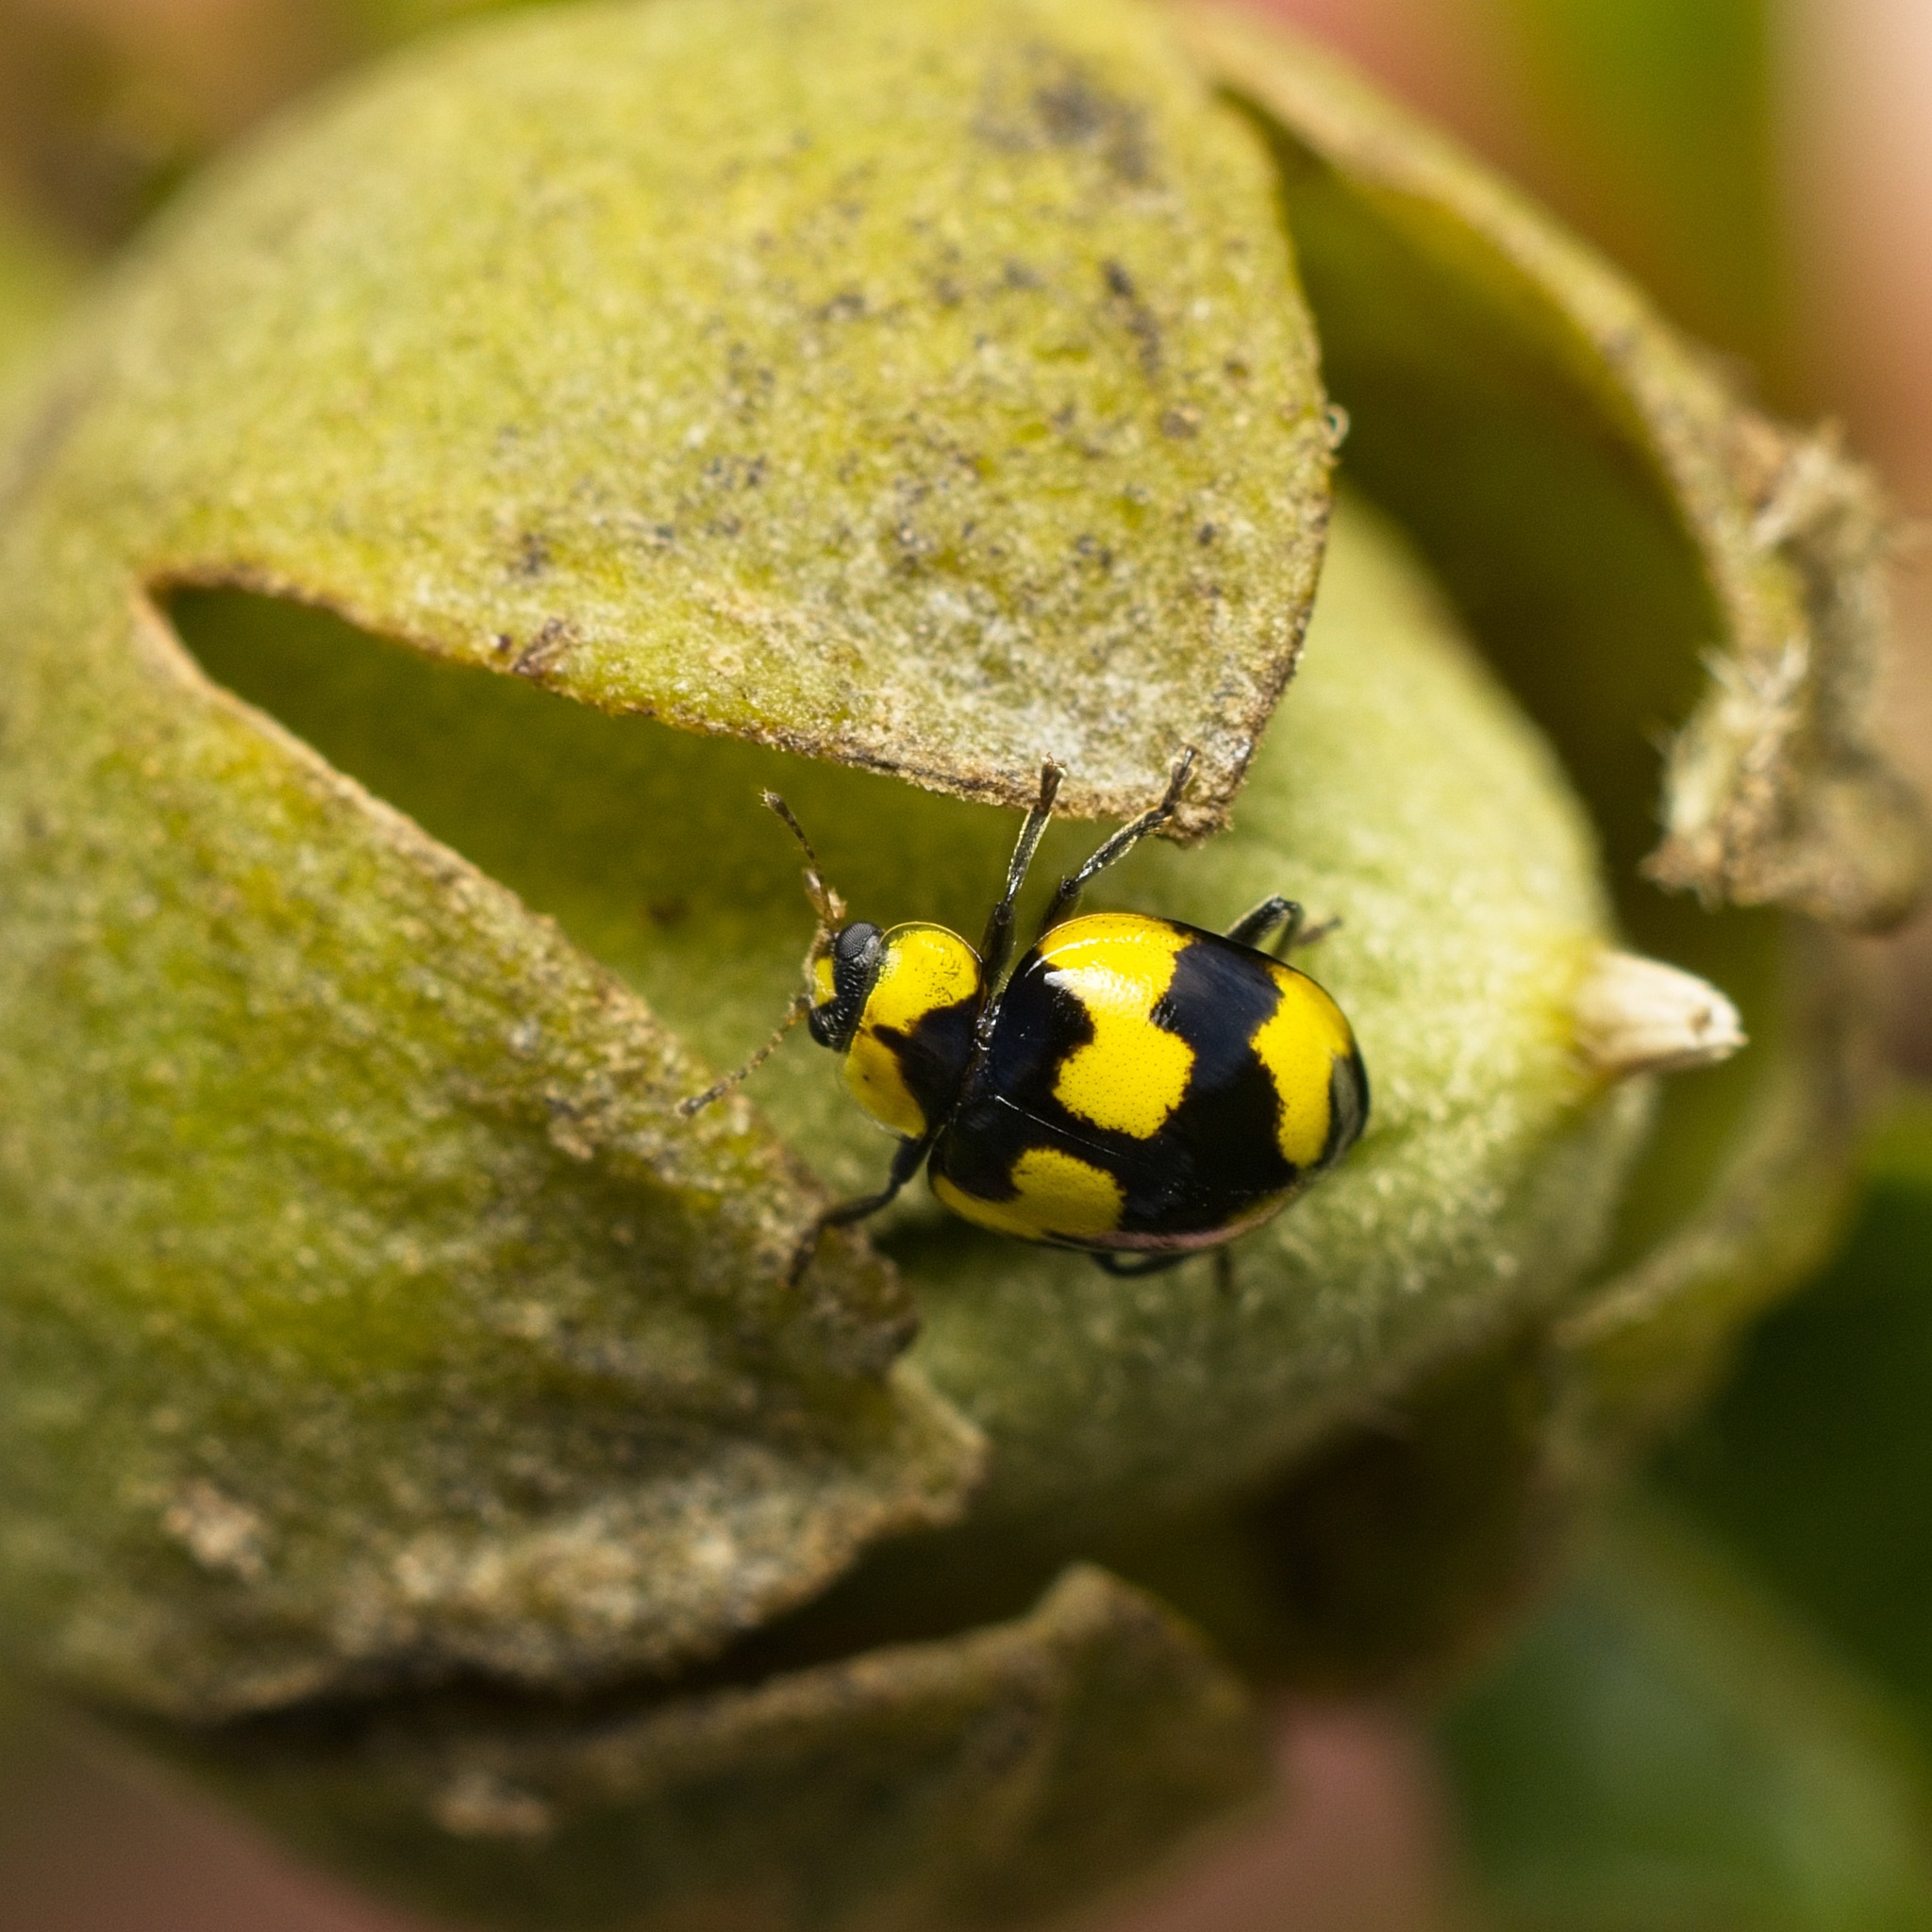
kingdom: Animalia
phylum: Arthropoda
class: Insecta
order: Coleoptera
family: Coccinellidae
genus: Illeis
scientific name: Illeis galbula
